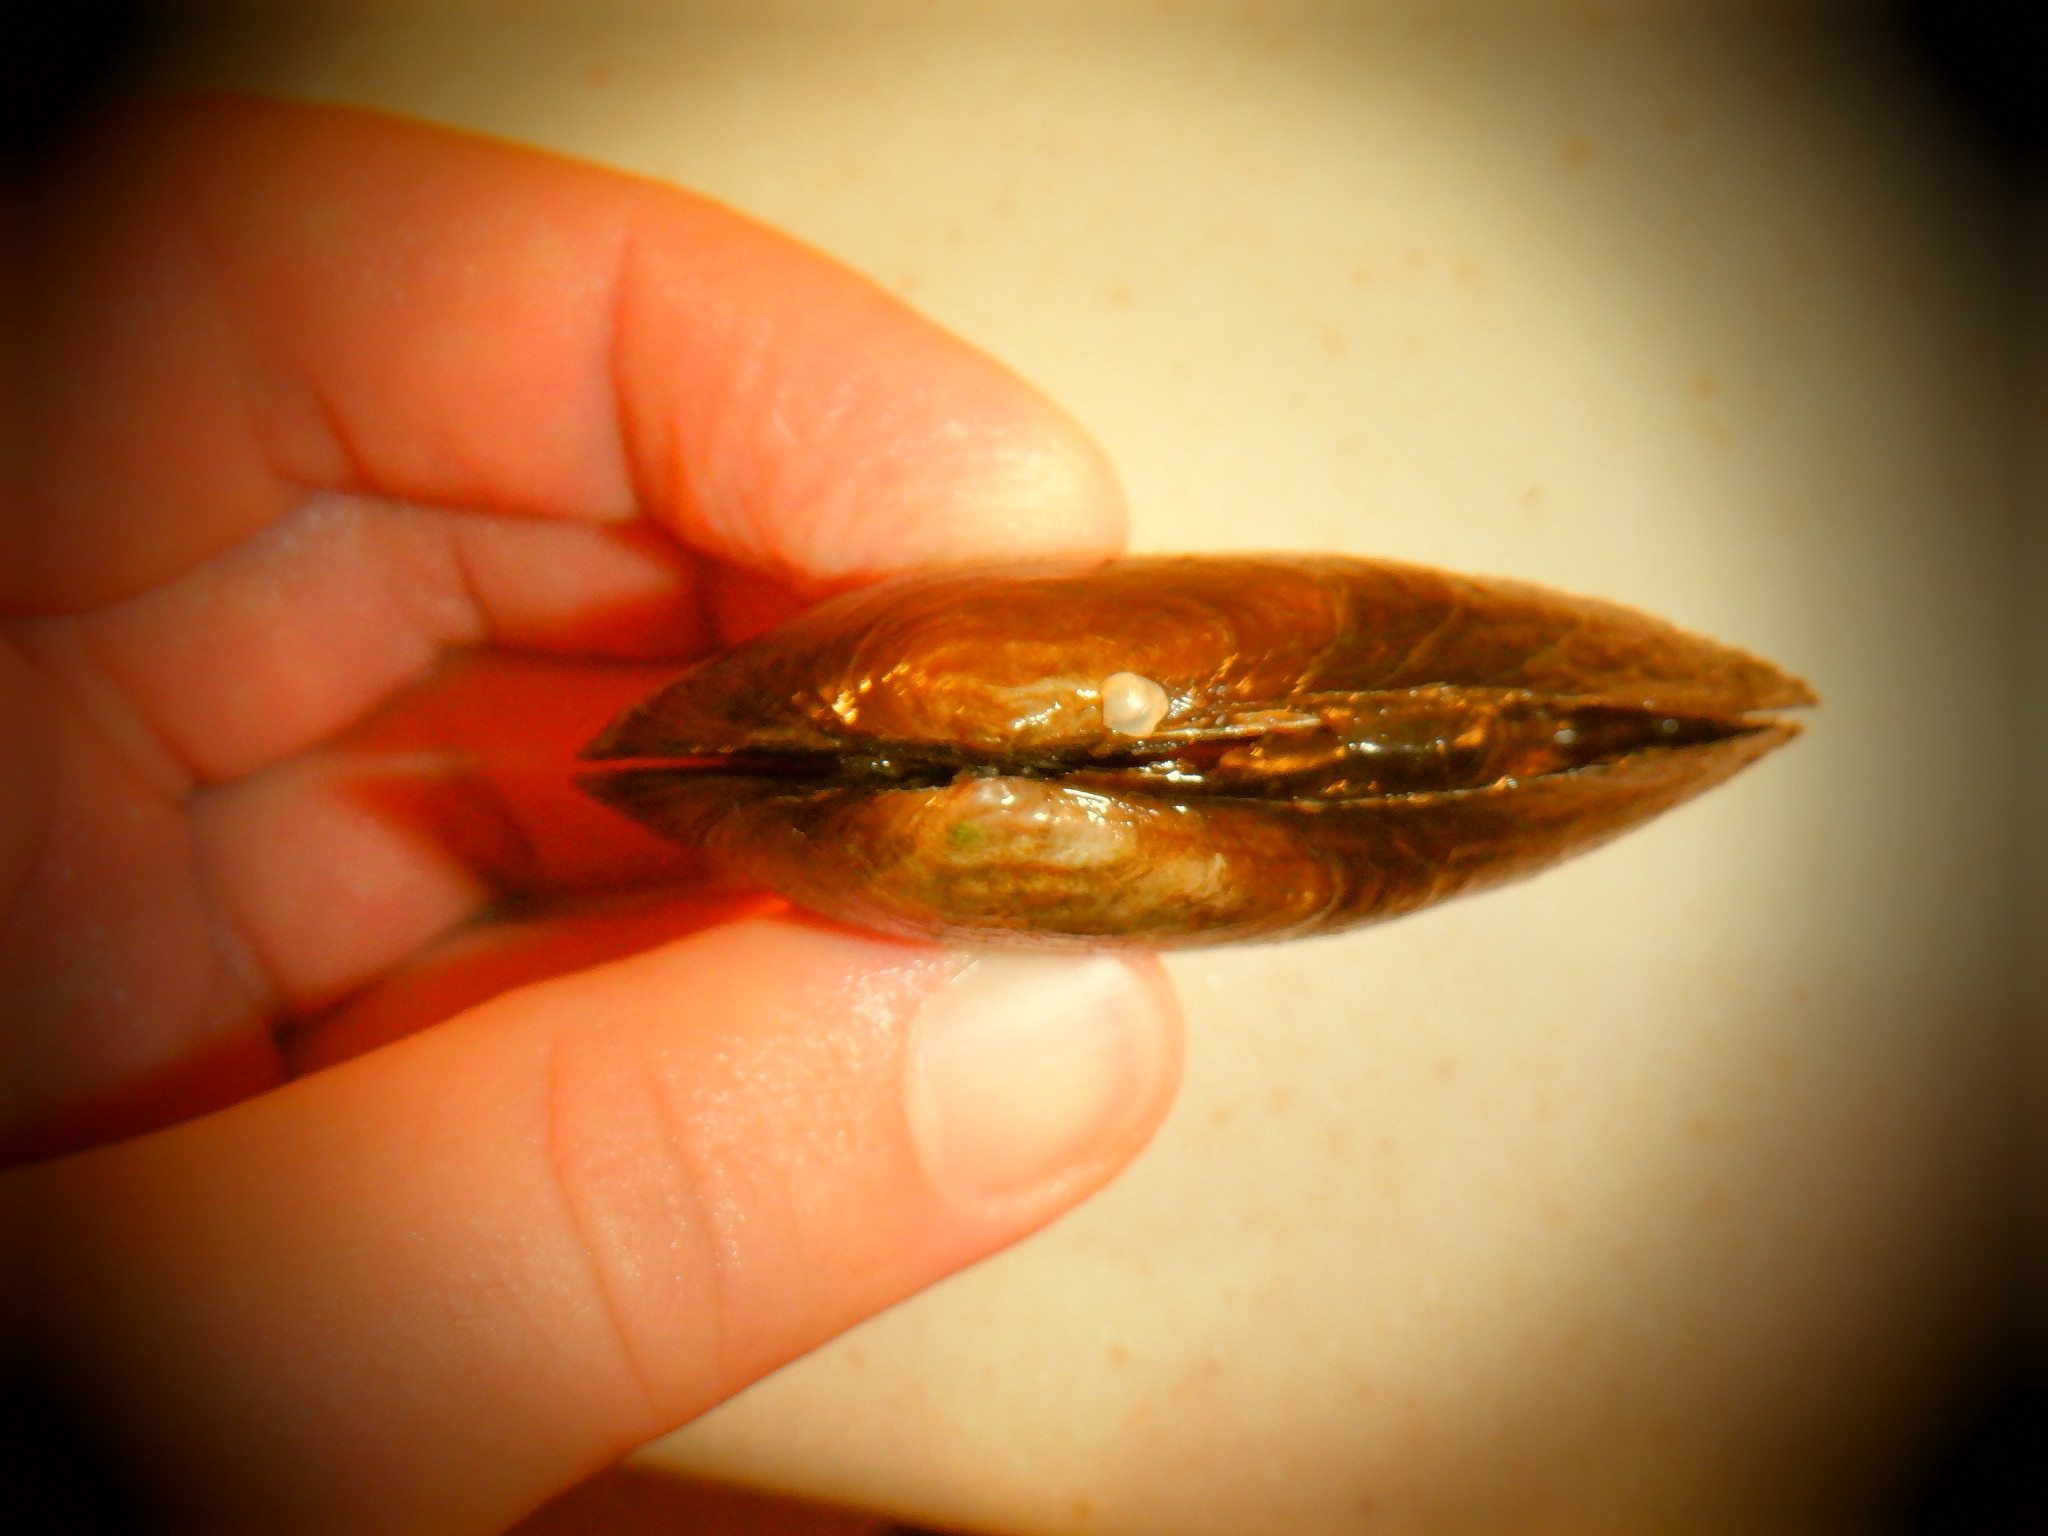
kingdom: Animalia
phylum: Mollusca
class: Bivalvia
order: Unionida
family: Unionidae
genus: Eurynia
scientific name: Eurynia dilatata
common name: Spike
